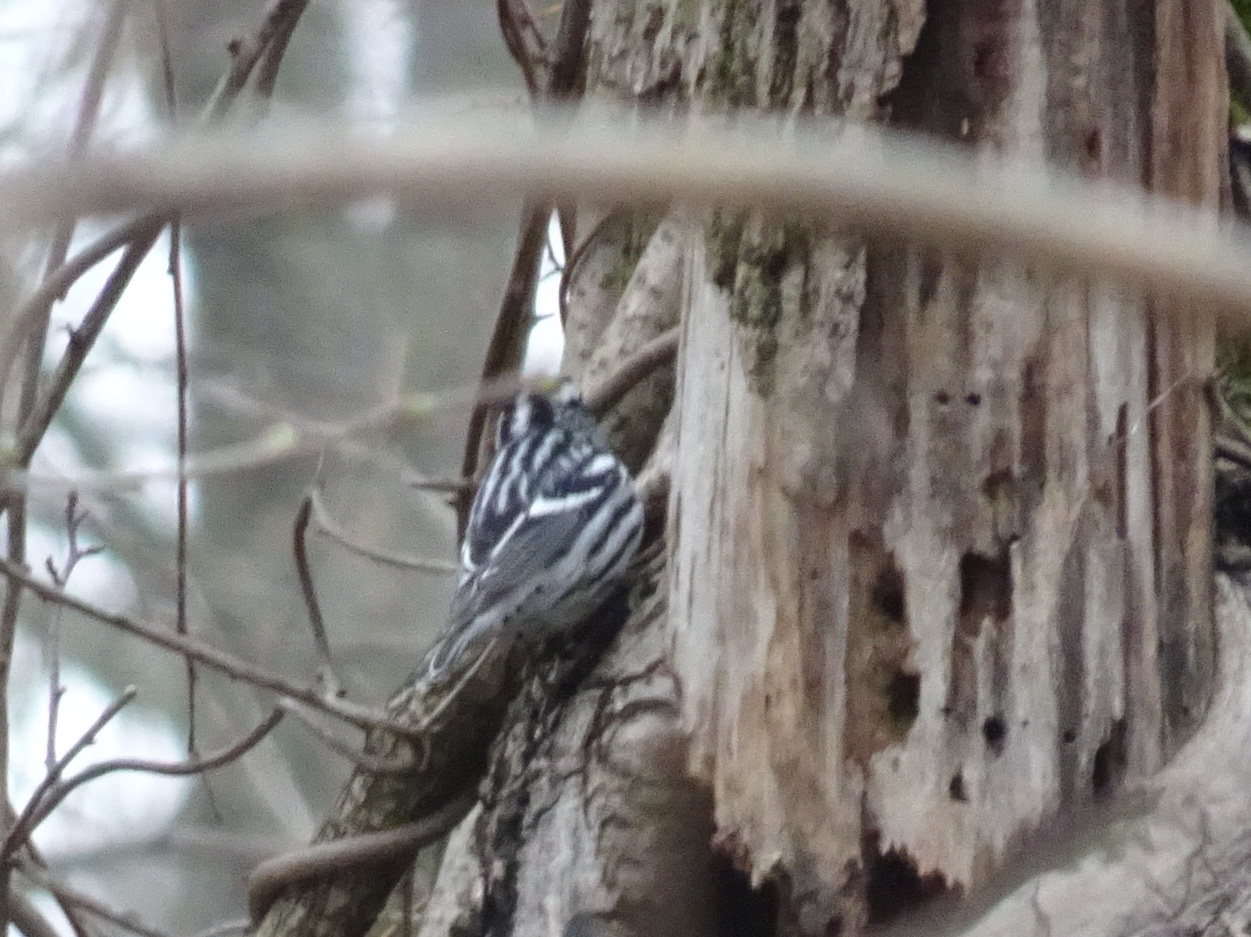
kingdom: Animalia
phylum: Chordata
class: Aves
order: Passeriformes
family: Parulidae
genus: Mniotilta
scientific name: Mniotilta varia
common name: Black-and-white warbler
